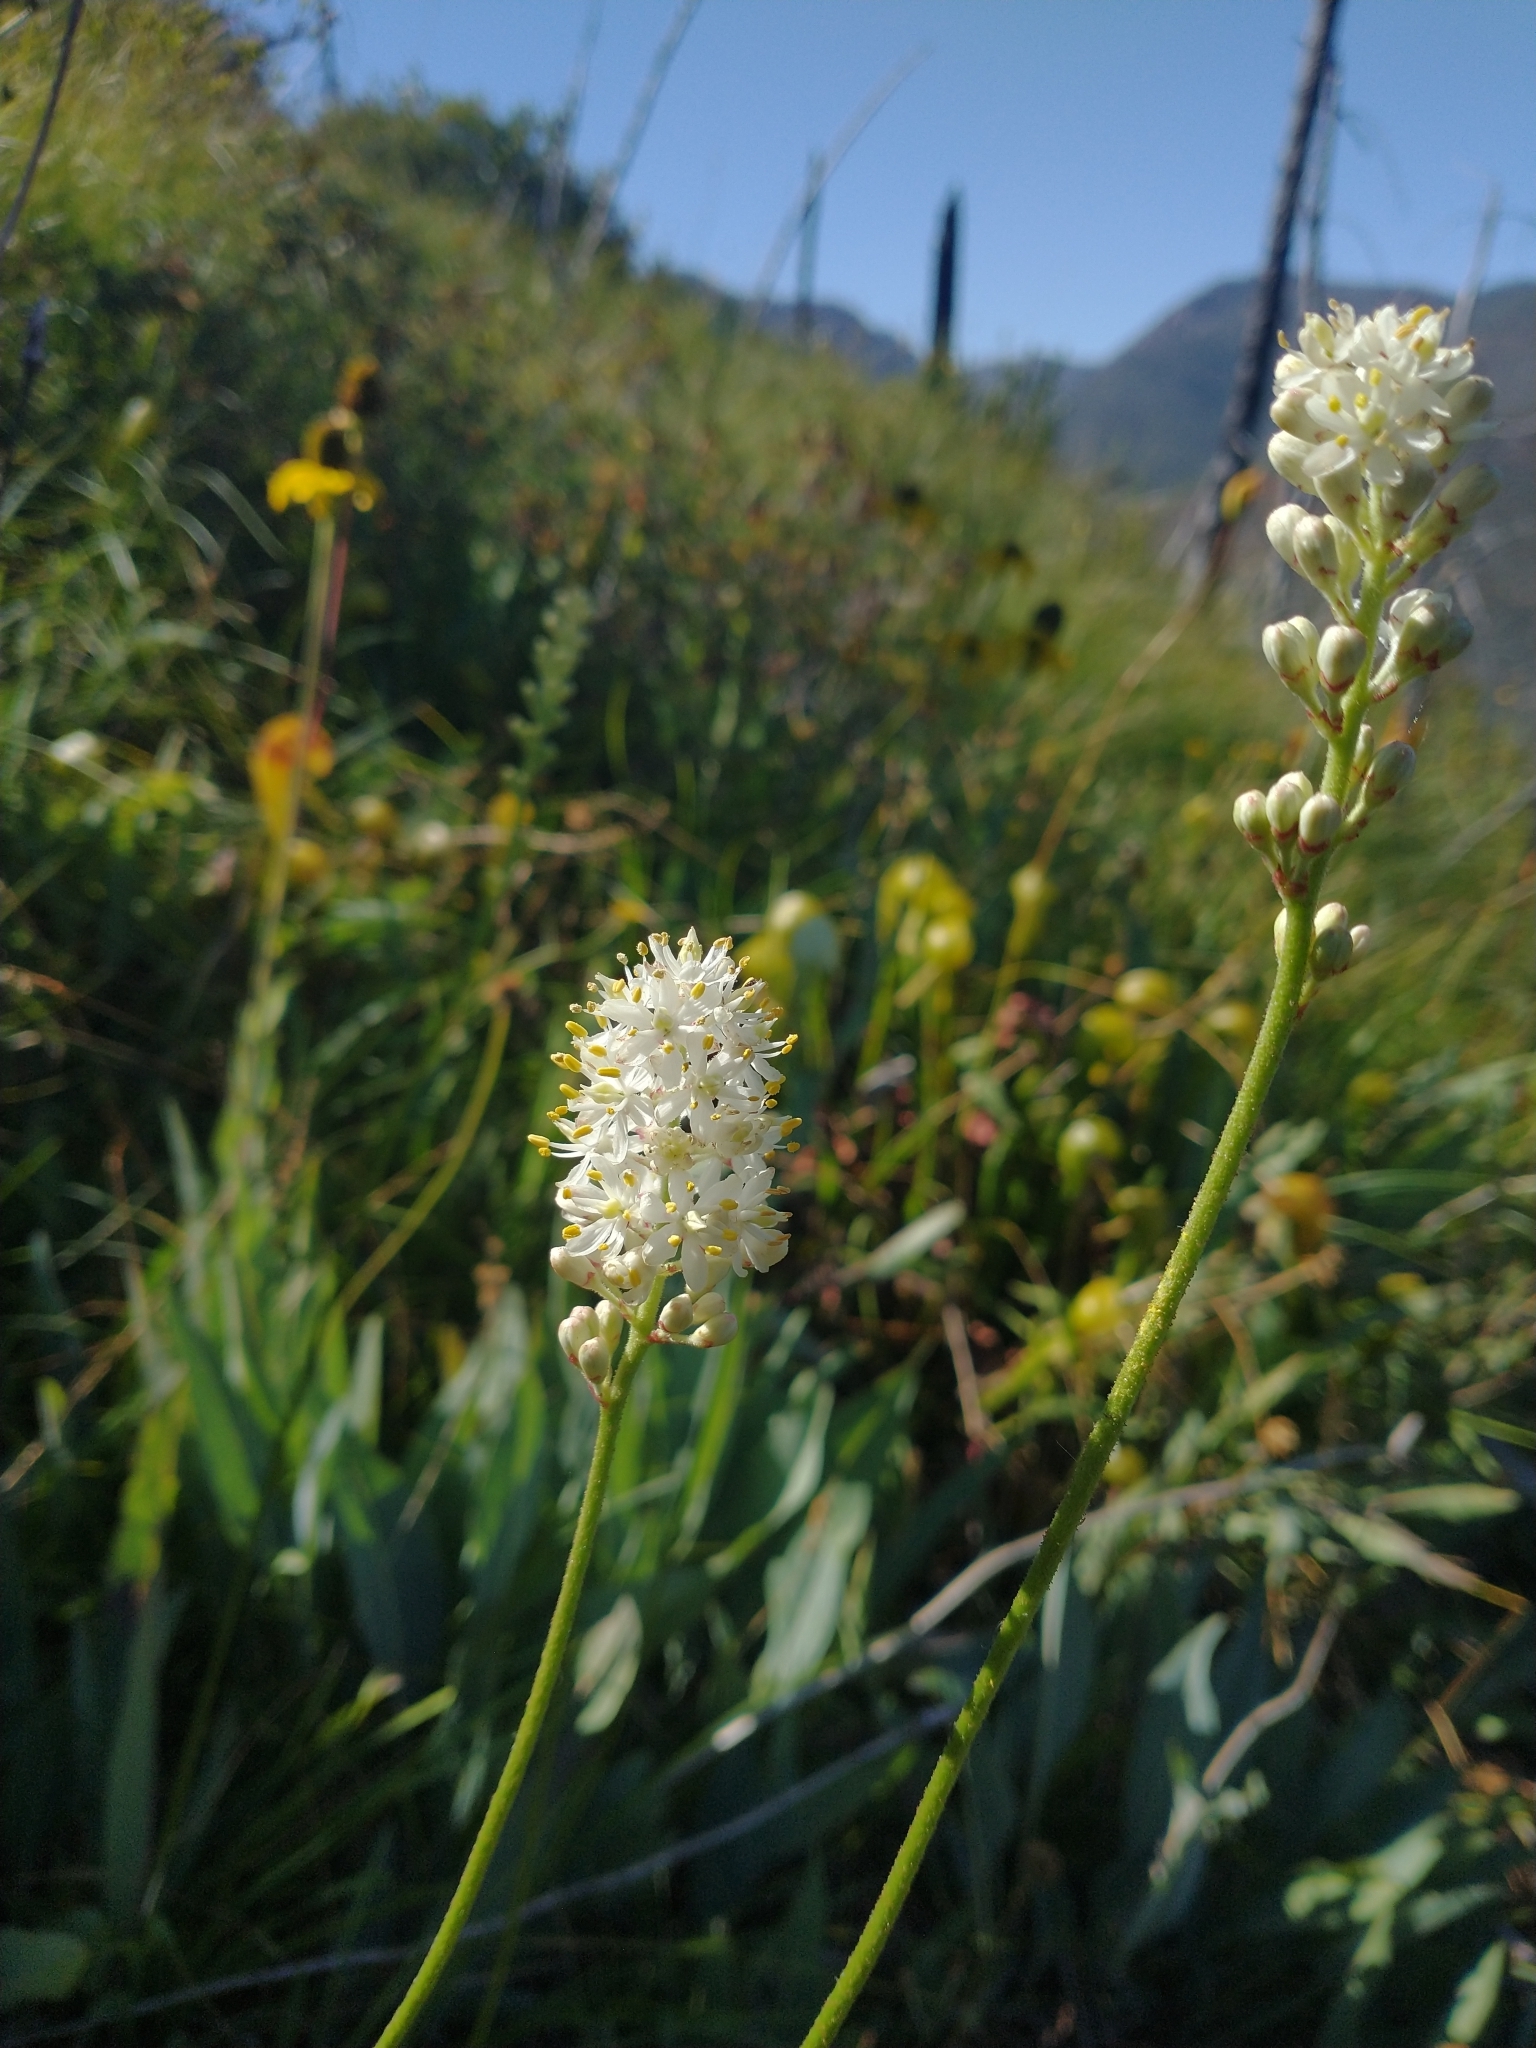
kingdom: Plantae
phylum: Tracheophyta
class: Liliopsida
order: Alismatales
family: Tofieldiaceae
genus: Triantha
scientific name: Triantha occidentalis
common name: Western false asphodel
